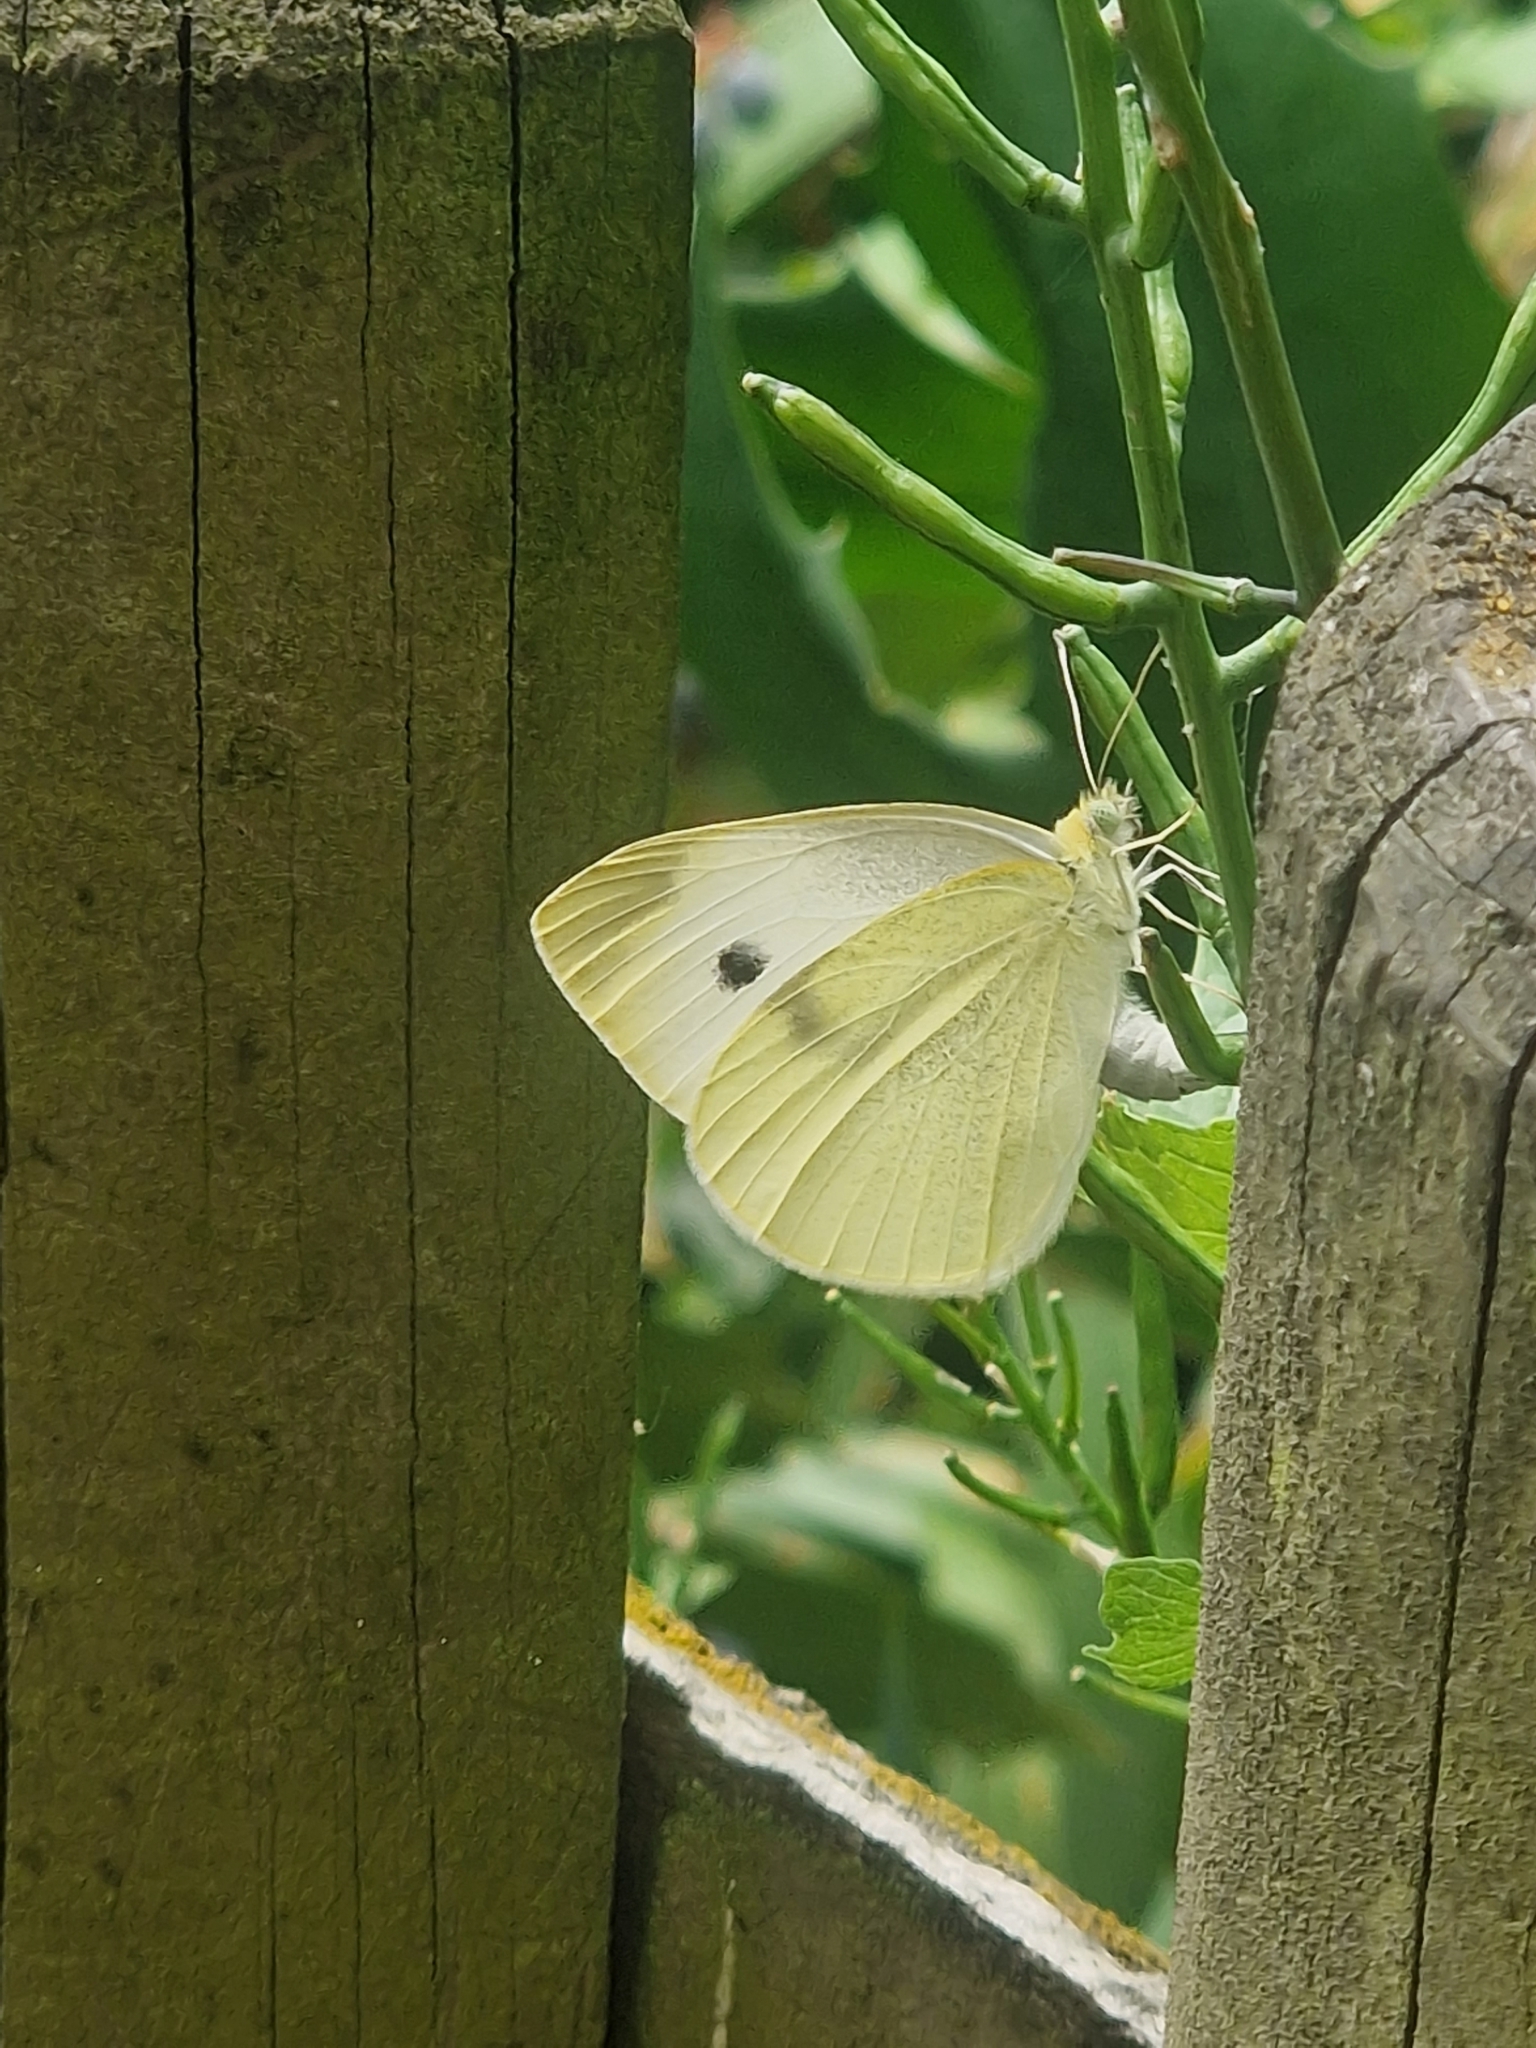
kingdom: Animalia
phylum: Arthropoda
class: Insecta
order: Lepidoptera
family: Pieridae
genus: Pieris
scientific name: Pieris rapae
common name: Small white
